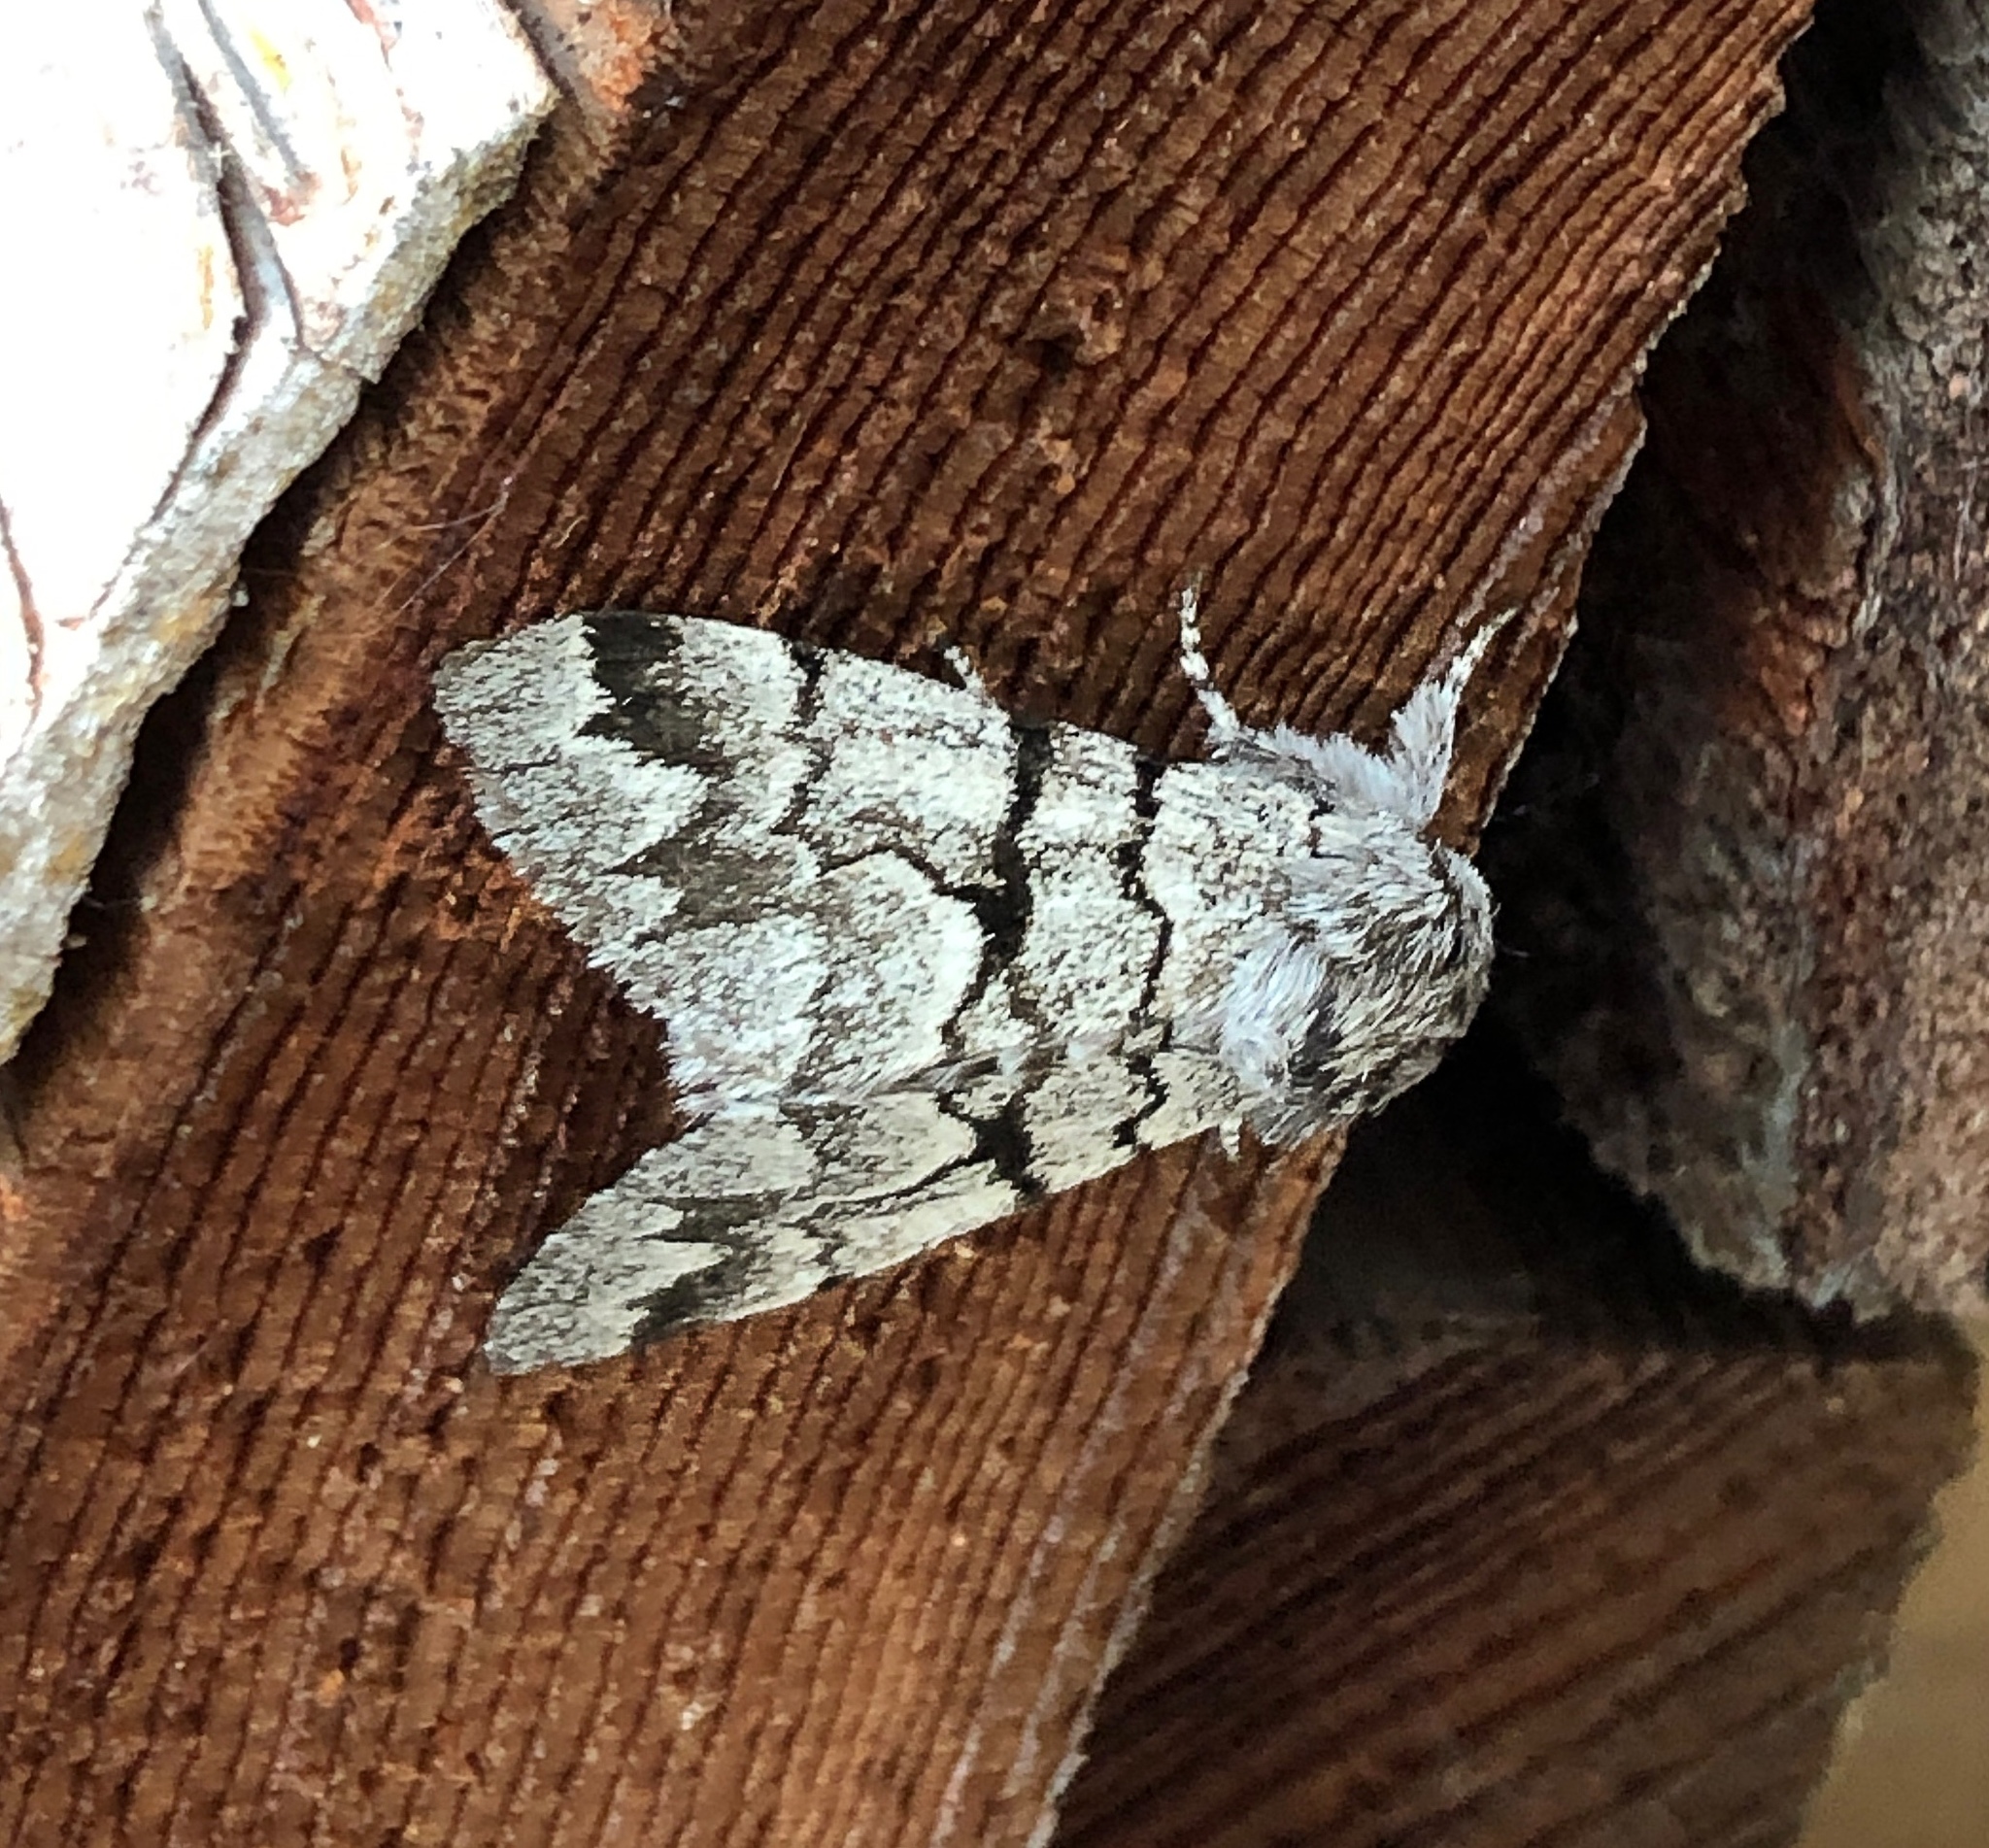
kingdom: Animalia
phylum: Arthropoda
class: Insecta
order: Lepidoptera
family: Noctuidae
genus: Panthea
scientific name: Panthea furcilla
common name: Eastern panthea moth
